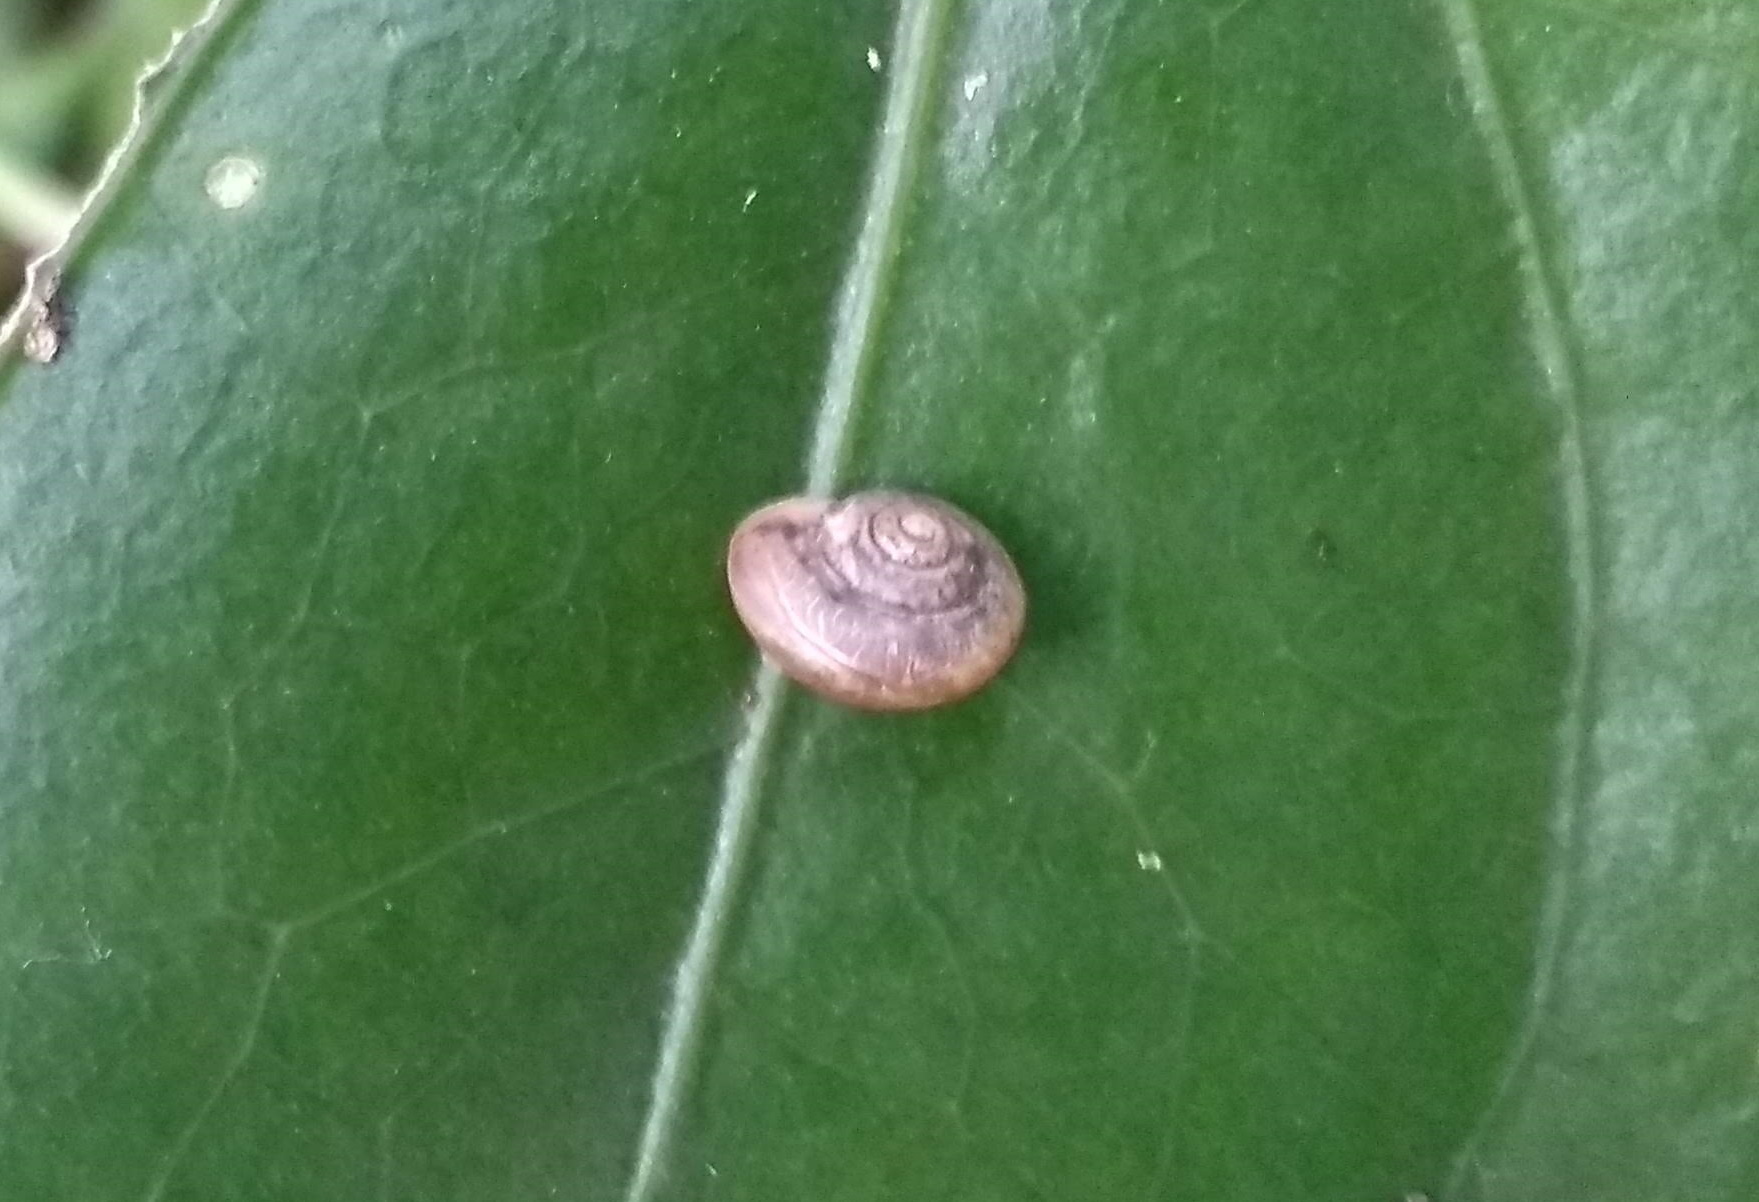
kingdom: Animalia
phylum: Mollusca
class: Gastropoda
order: Stylommatophora
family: Camaenidae
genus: Bradybaena
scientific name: Bradybaena similaris
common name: Asian trampsnail
